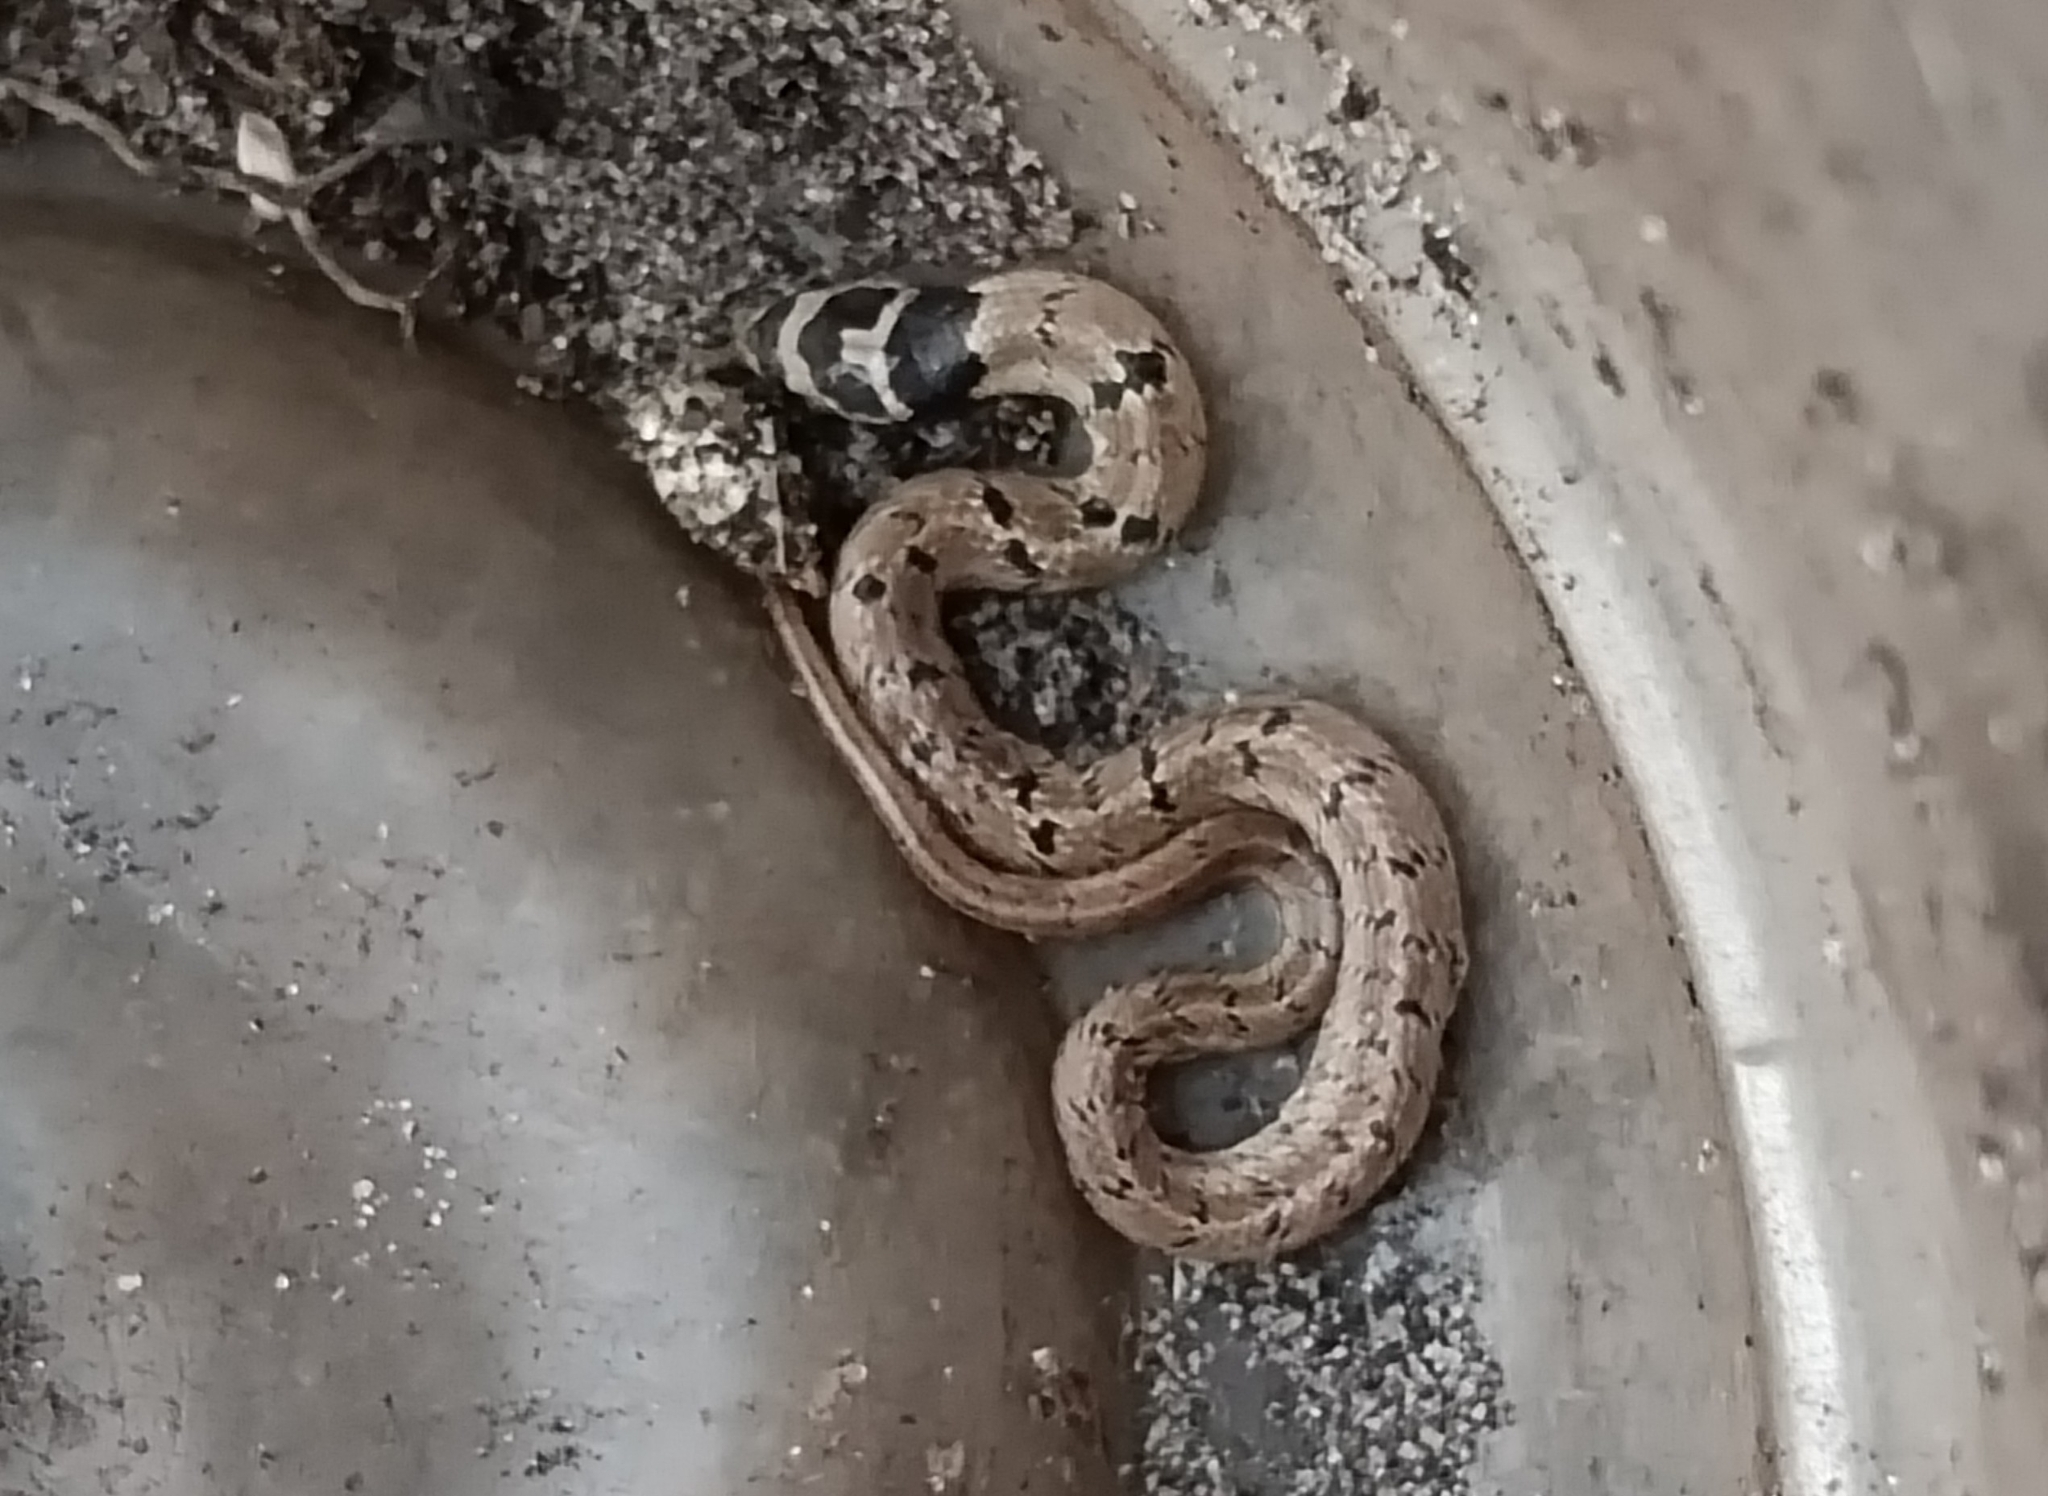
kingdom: Animalia
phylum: Chordata
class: Squamata
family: Colubridae
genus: Oligodon
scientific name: Oligodon taeniolatus
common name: Loos snake
